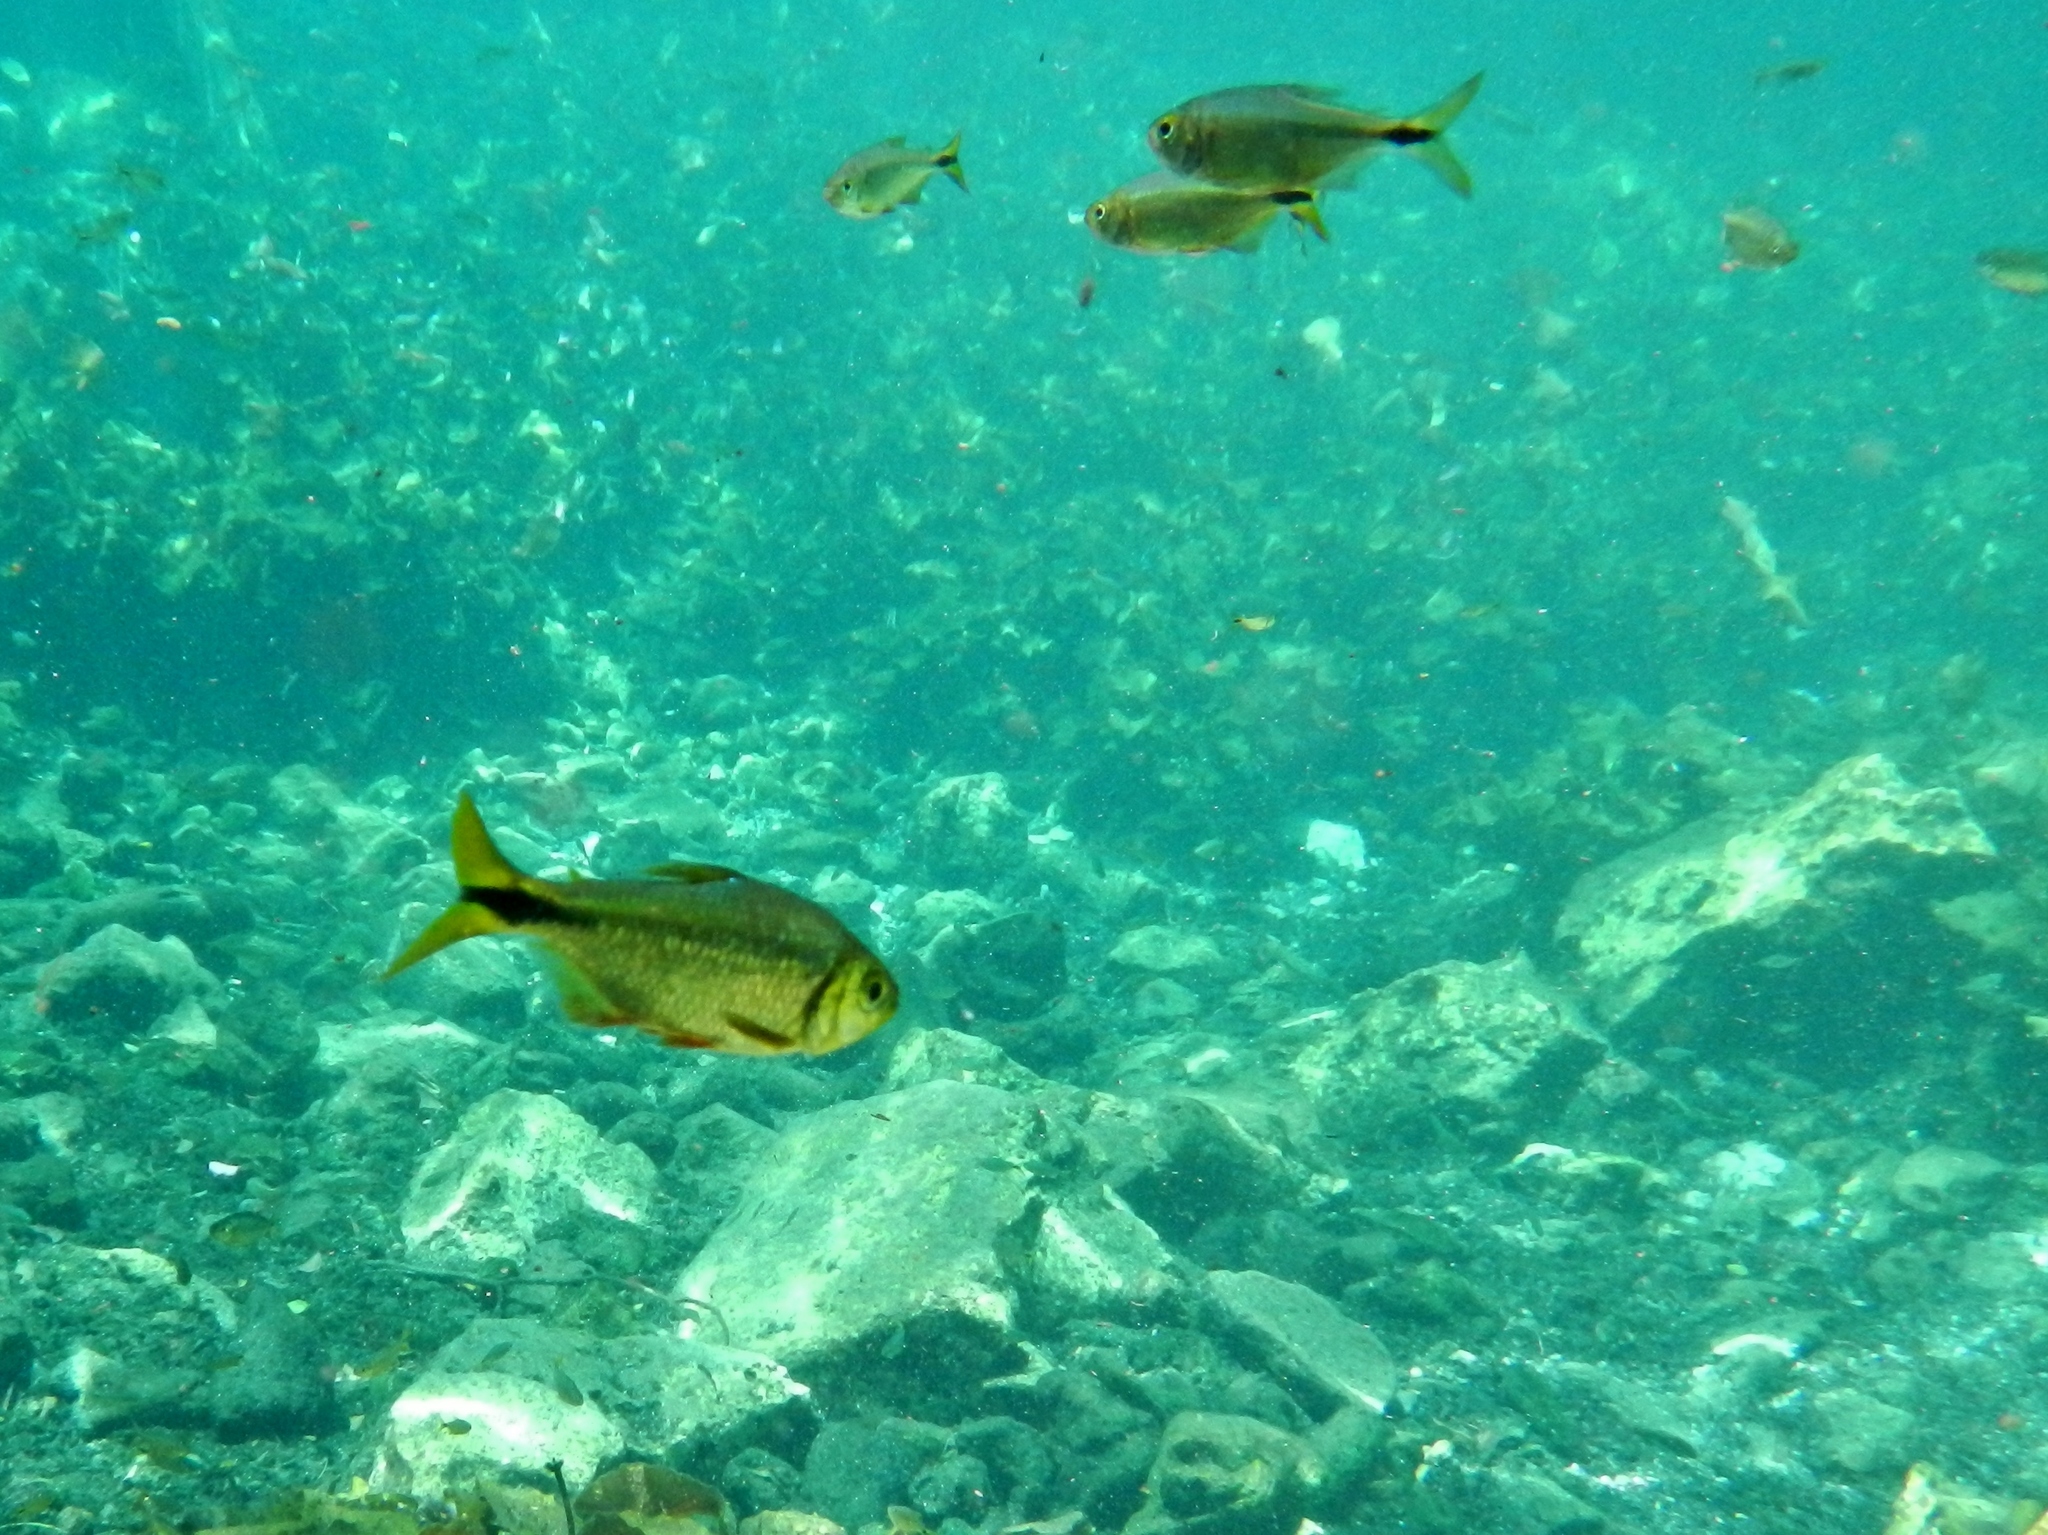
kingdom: Animalia
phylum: Chordata
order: Characiformes
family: Characidae
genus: Astyanax
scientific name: Astyanax bacalarensis
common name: Bacalar tetra
